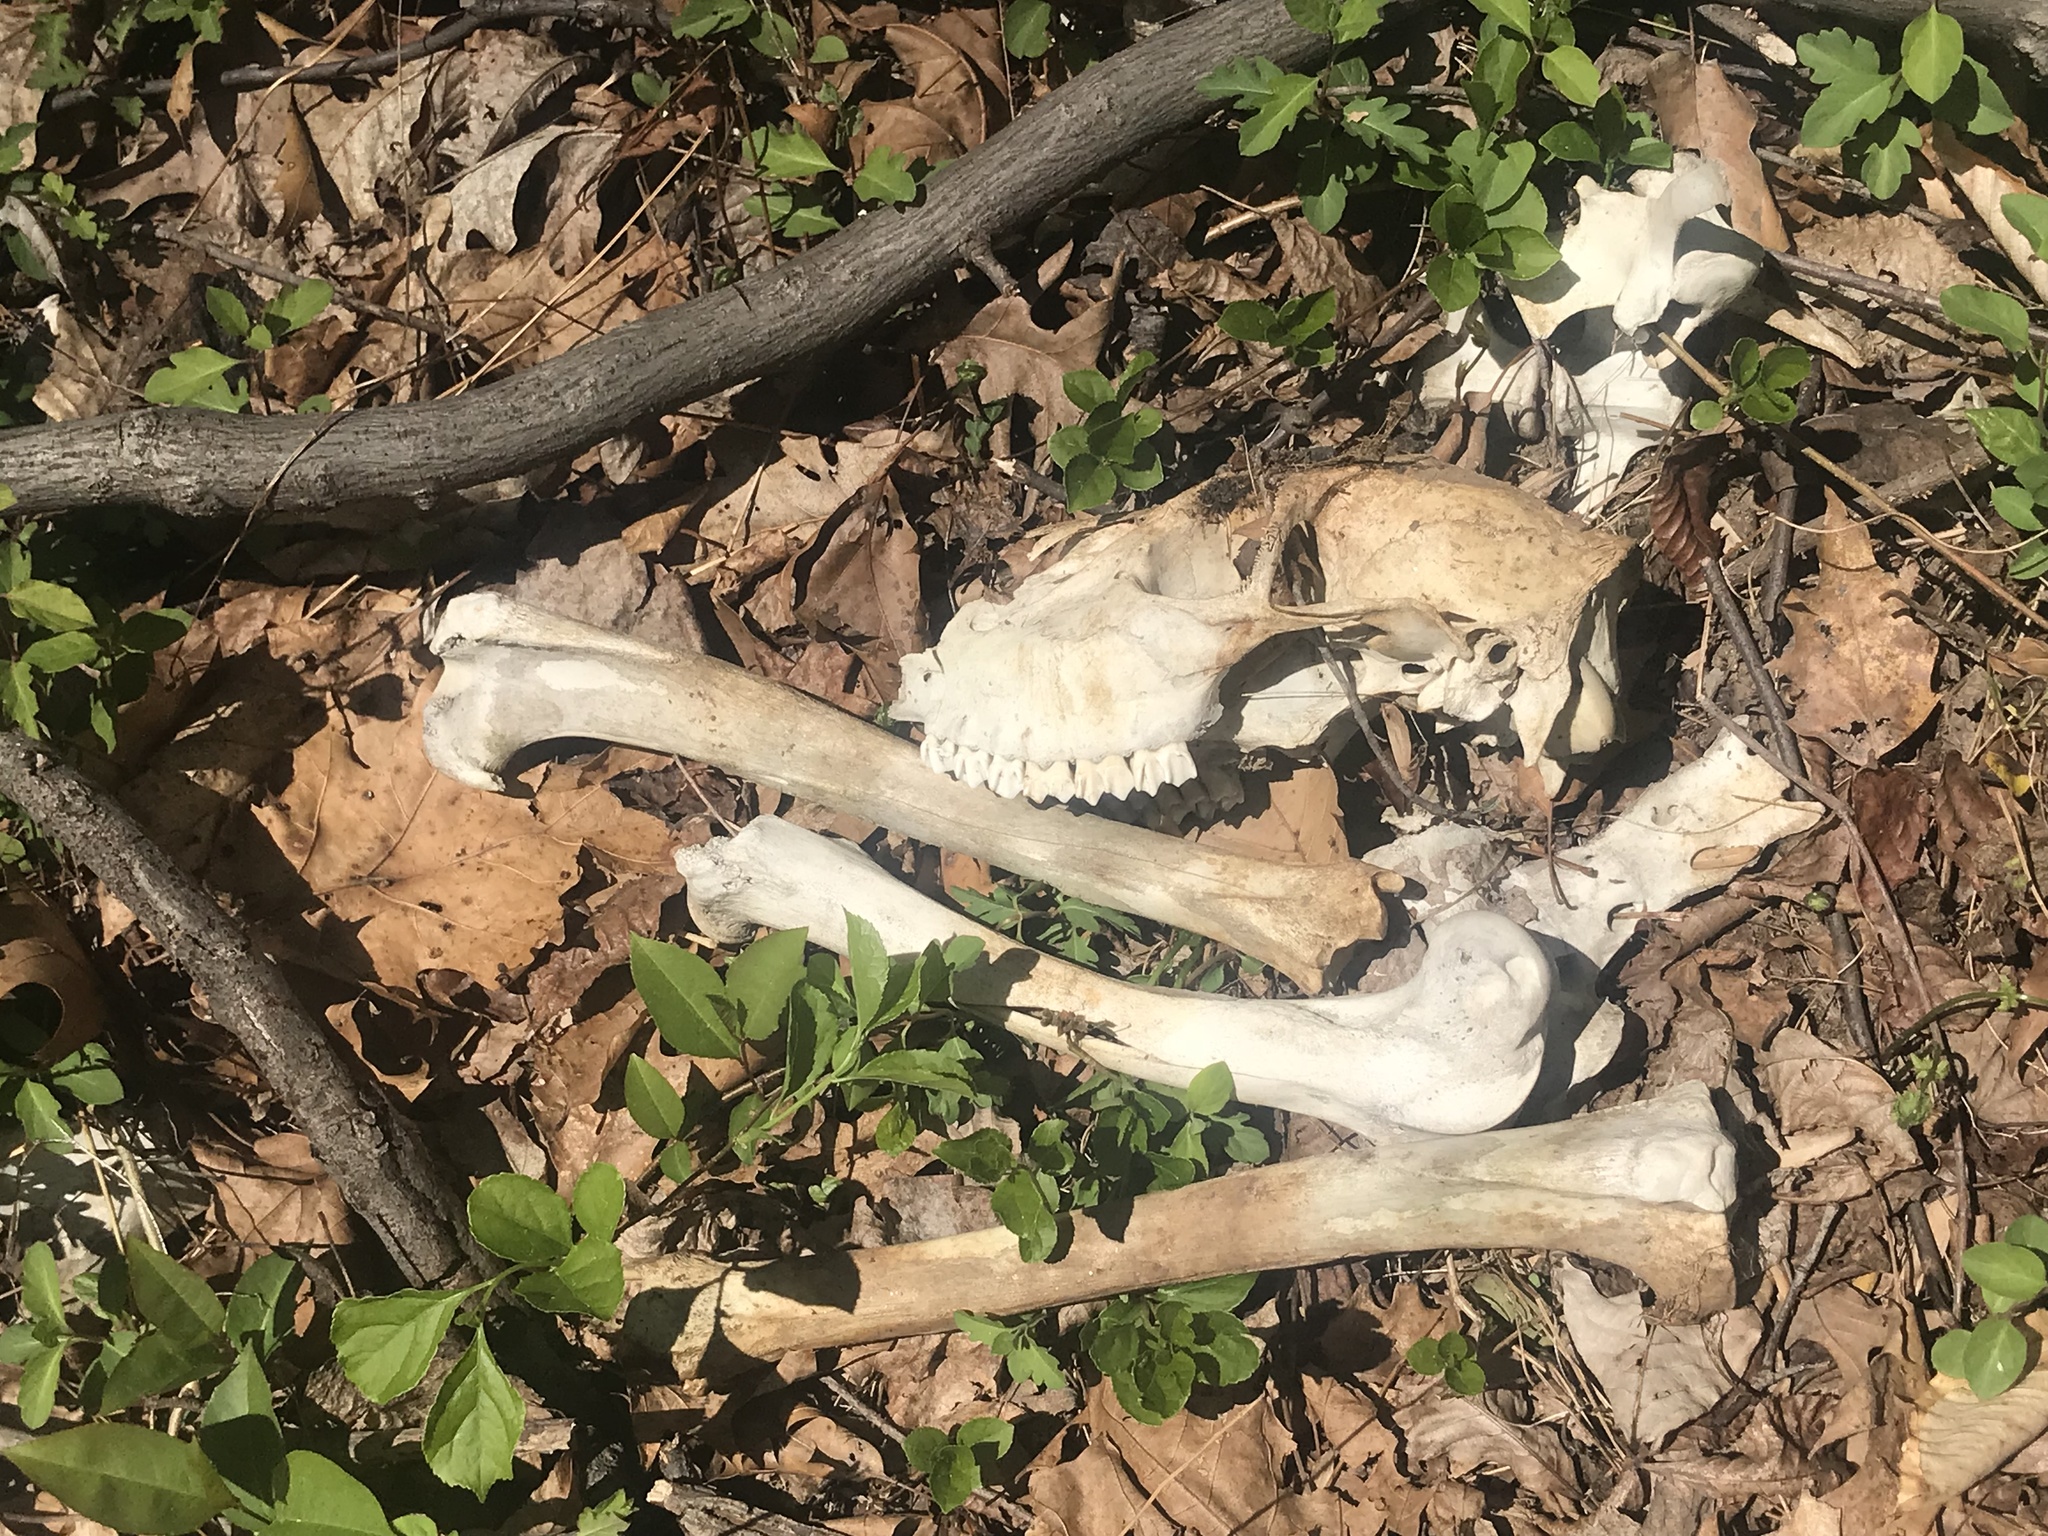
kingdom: Animalia
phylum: Chordata
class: Mammalia
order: Artiodactyla
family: Cervidae
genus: Odocoileus
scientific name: Odocoileus virginianus
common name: White-tailed deer
